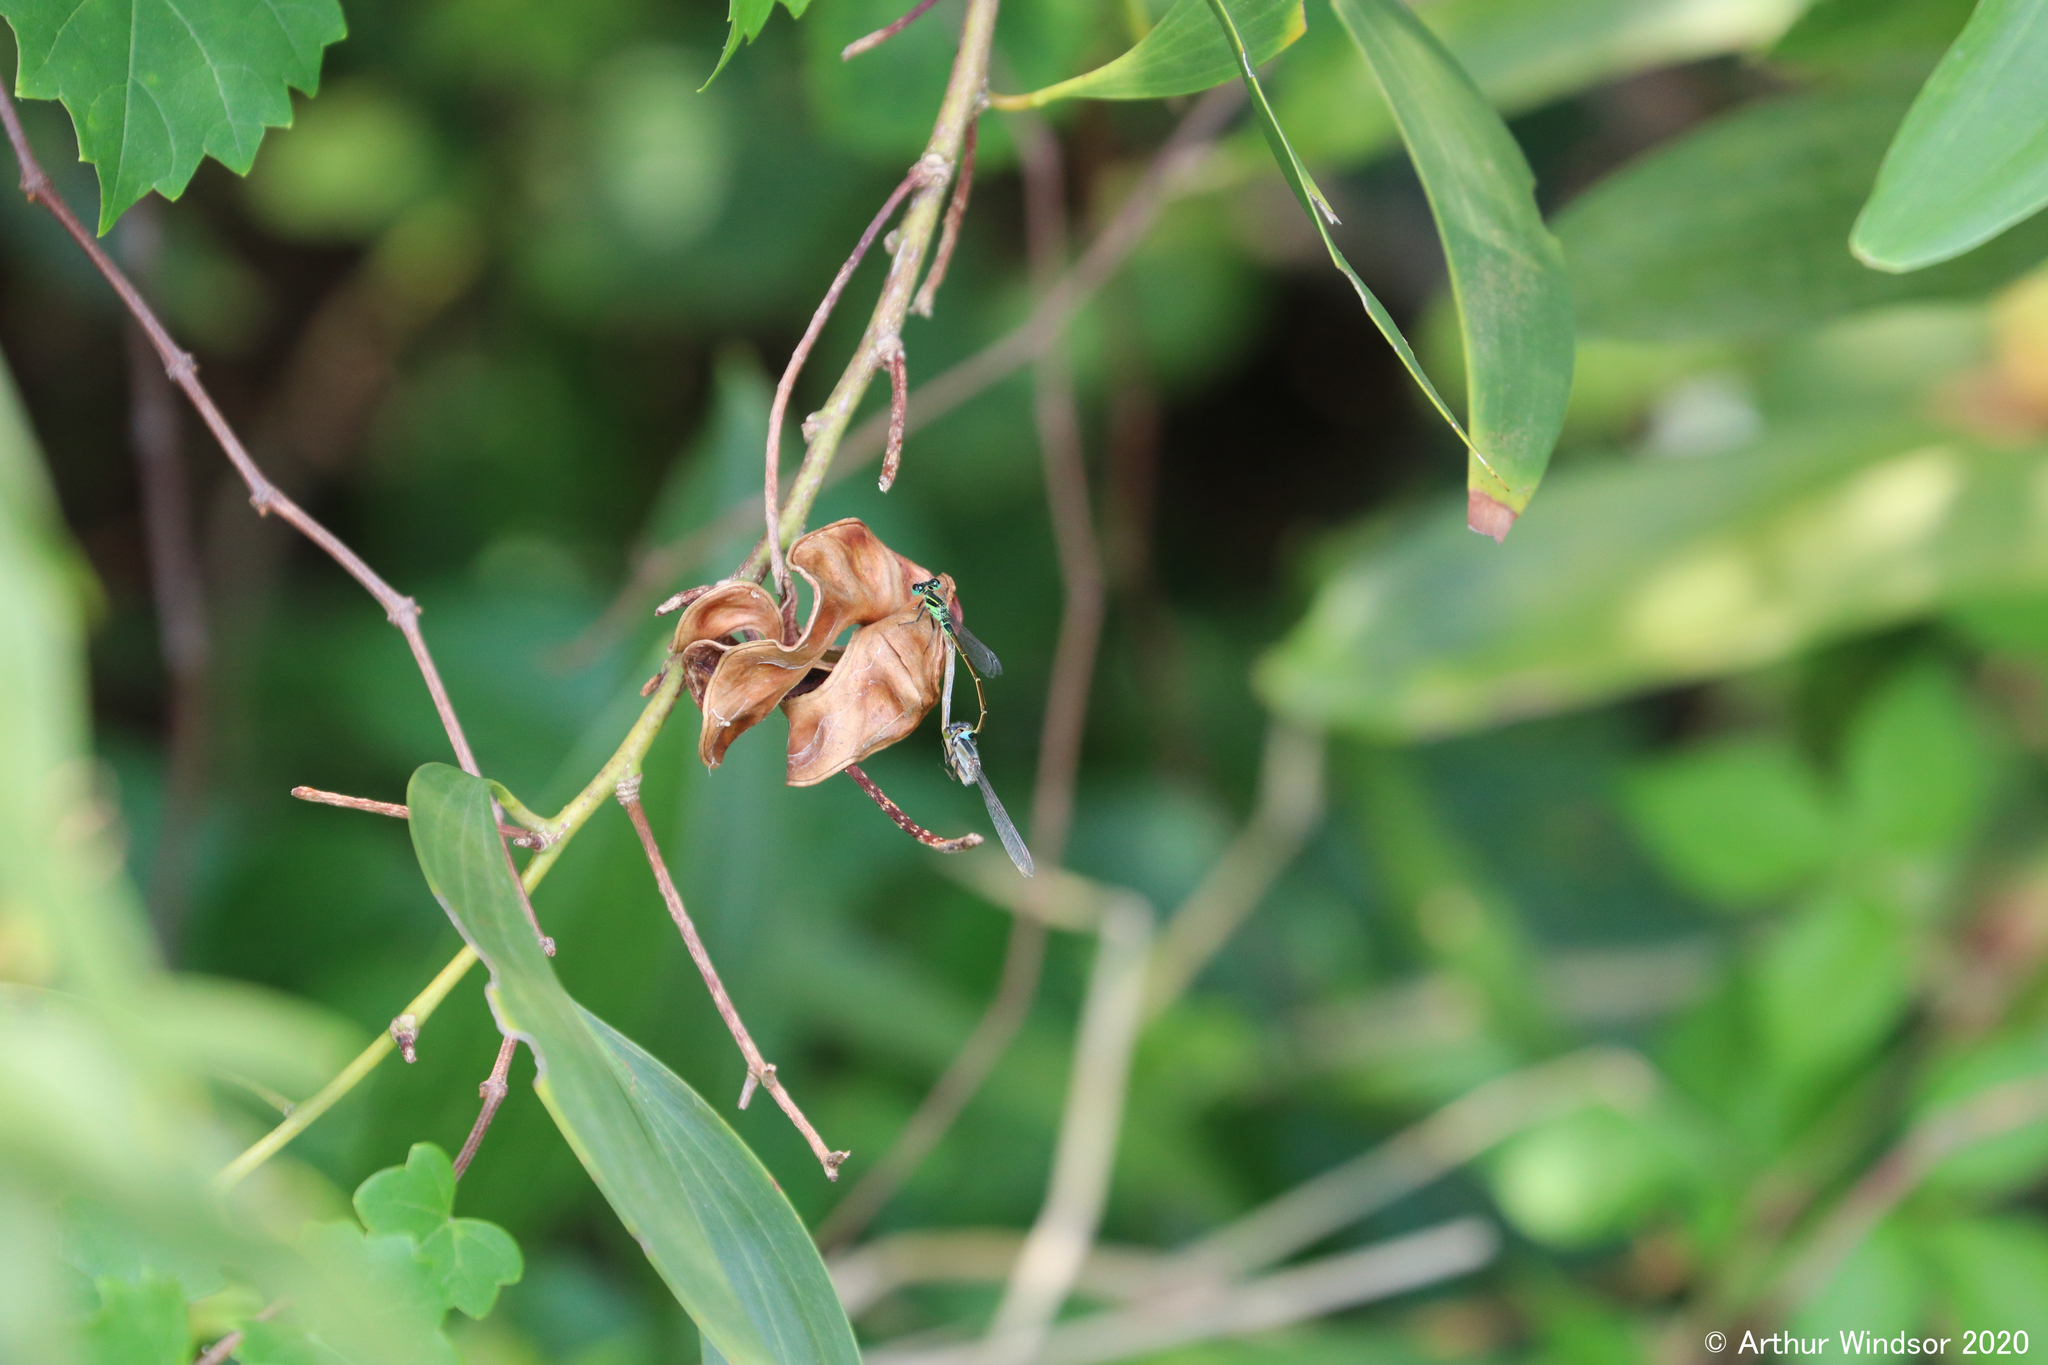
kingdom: Animalia
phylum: Arthropoda
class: Insecta
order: Odonata
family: Coenagrionidae
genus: Ischnura
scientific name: Ischnura ramburii
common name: Rambur's forktail
